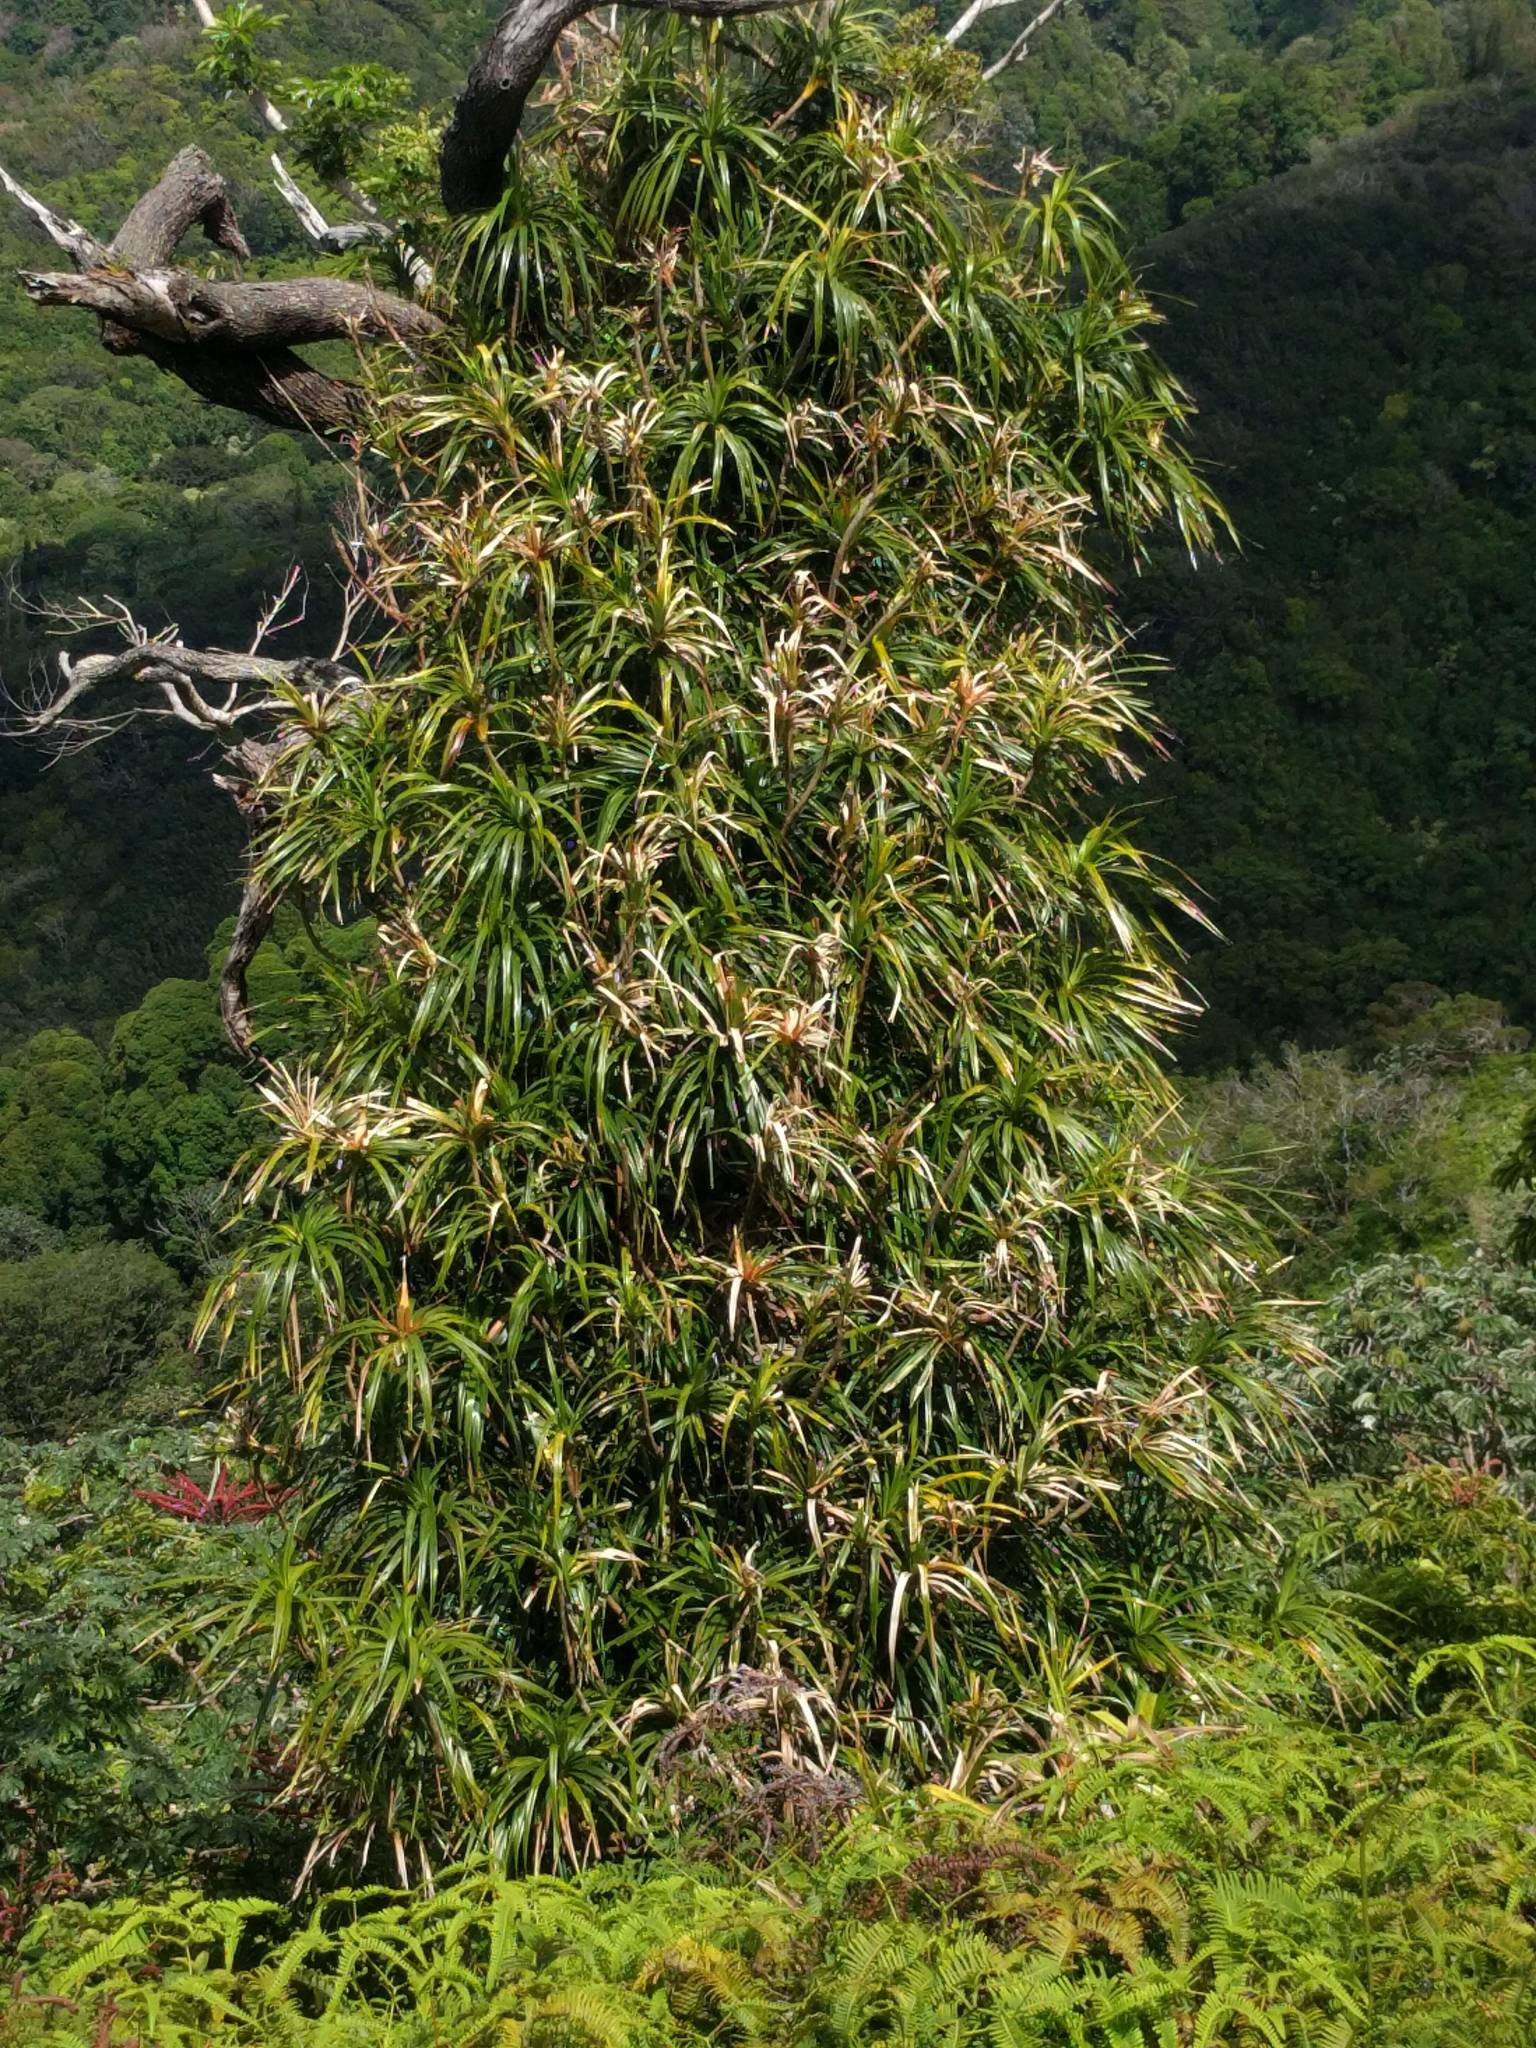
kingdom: Plantae
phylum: Tracheophyta
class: Liliopsida
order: Pandanales
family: Pandanaceae
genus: Freycinetia
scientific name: Freycinetia arborea
